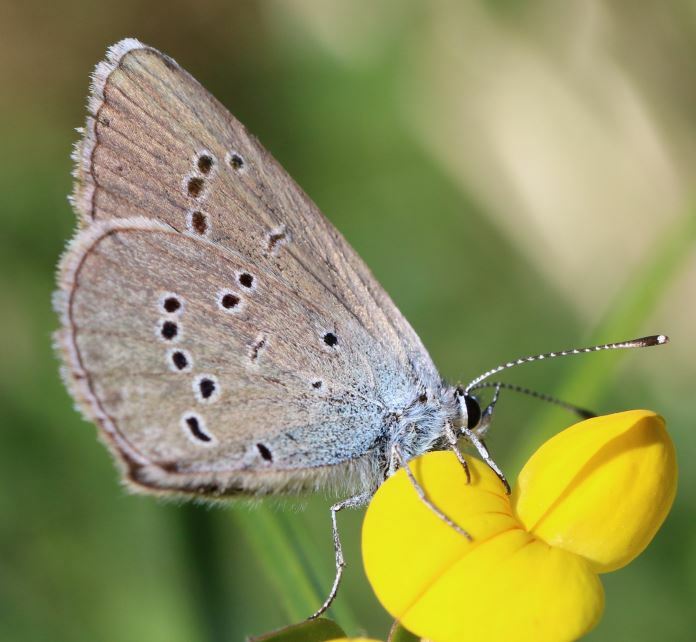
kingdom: Animalia
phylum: Arthropoda
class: Insecta
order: Lepidoptera
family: Lycaenidae
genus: Cyaniris
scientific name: Cyaniris semiargus
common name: Mazarine blue
